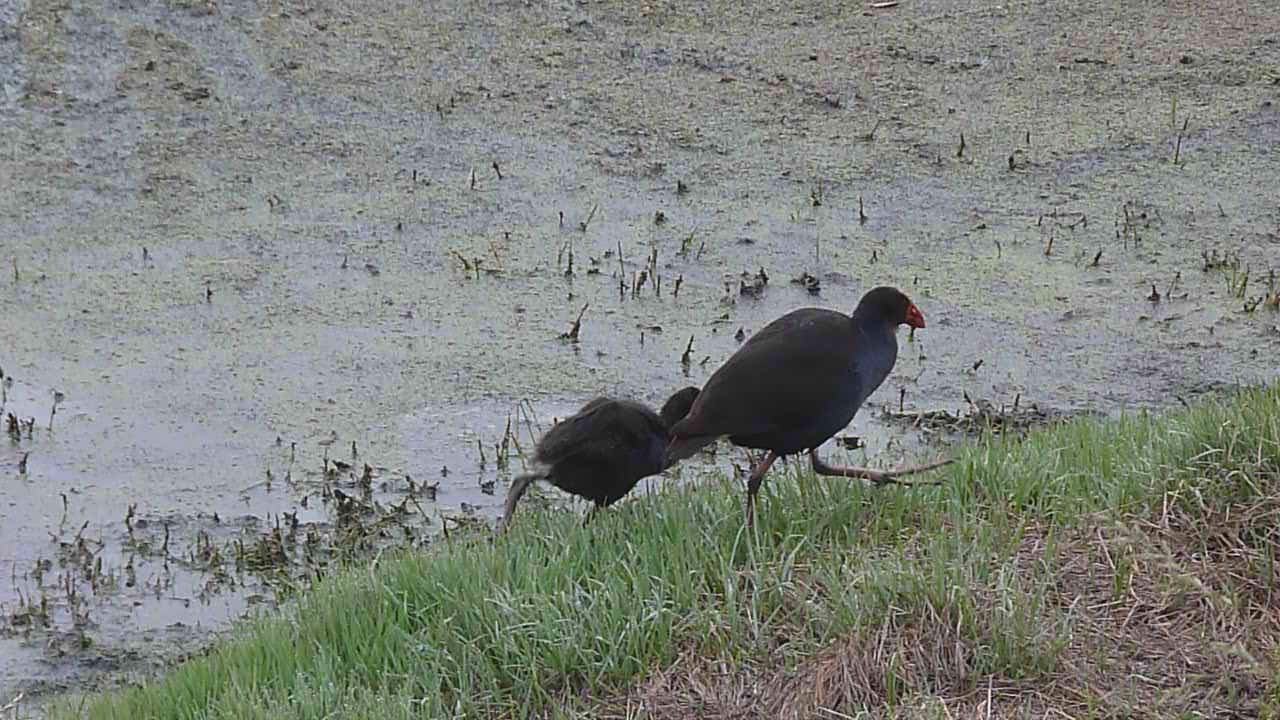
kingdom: Animalia
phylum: Chordata
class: Aves
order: Gruiformes
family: Rallidae
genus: Porphyrio
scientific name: Porphyrio melanotus
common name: Australasian swamphen
